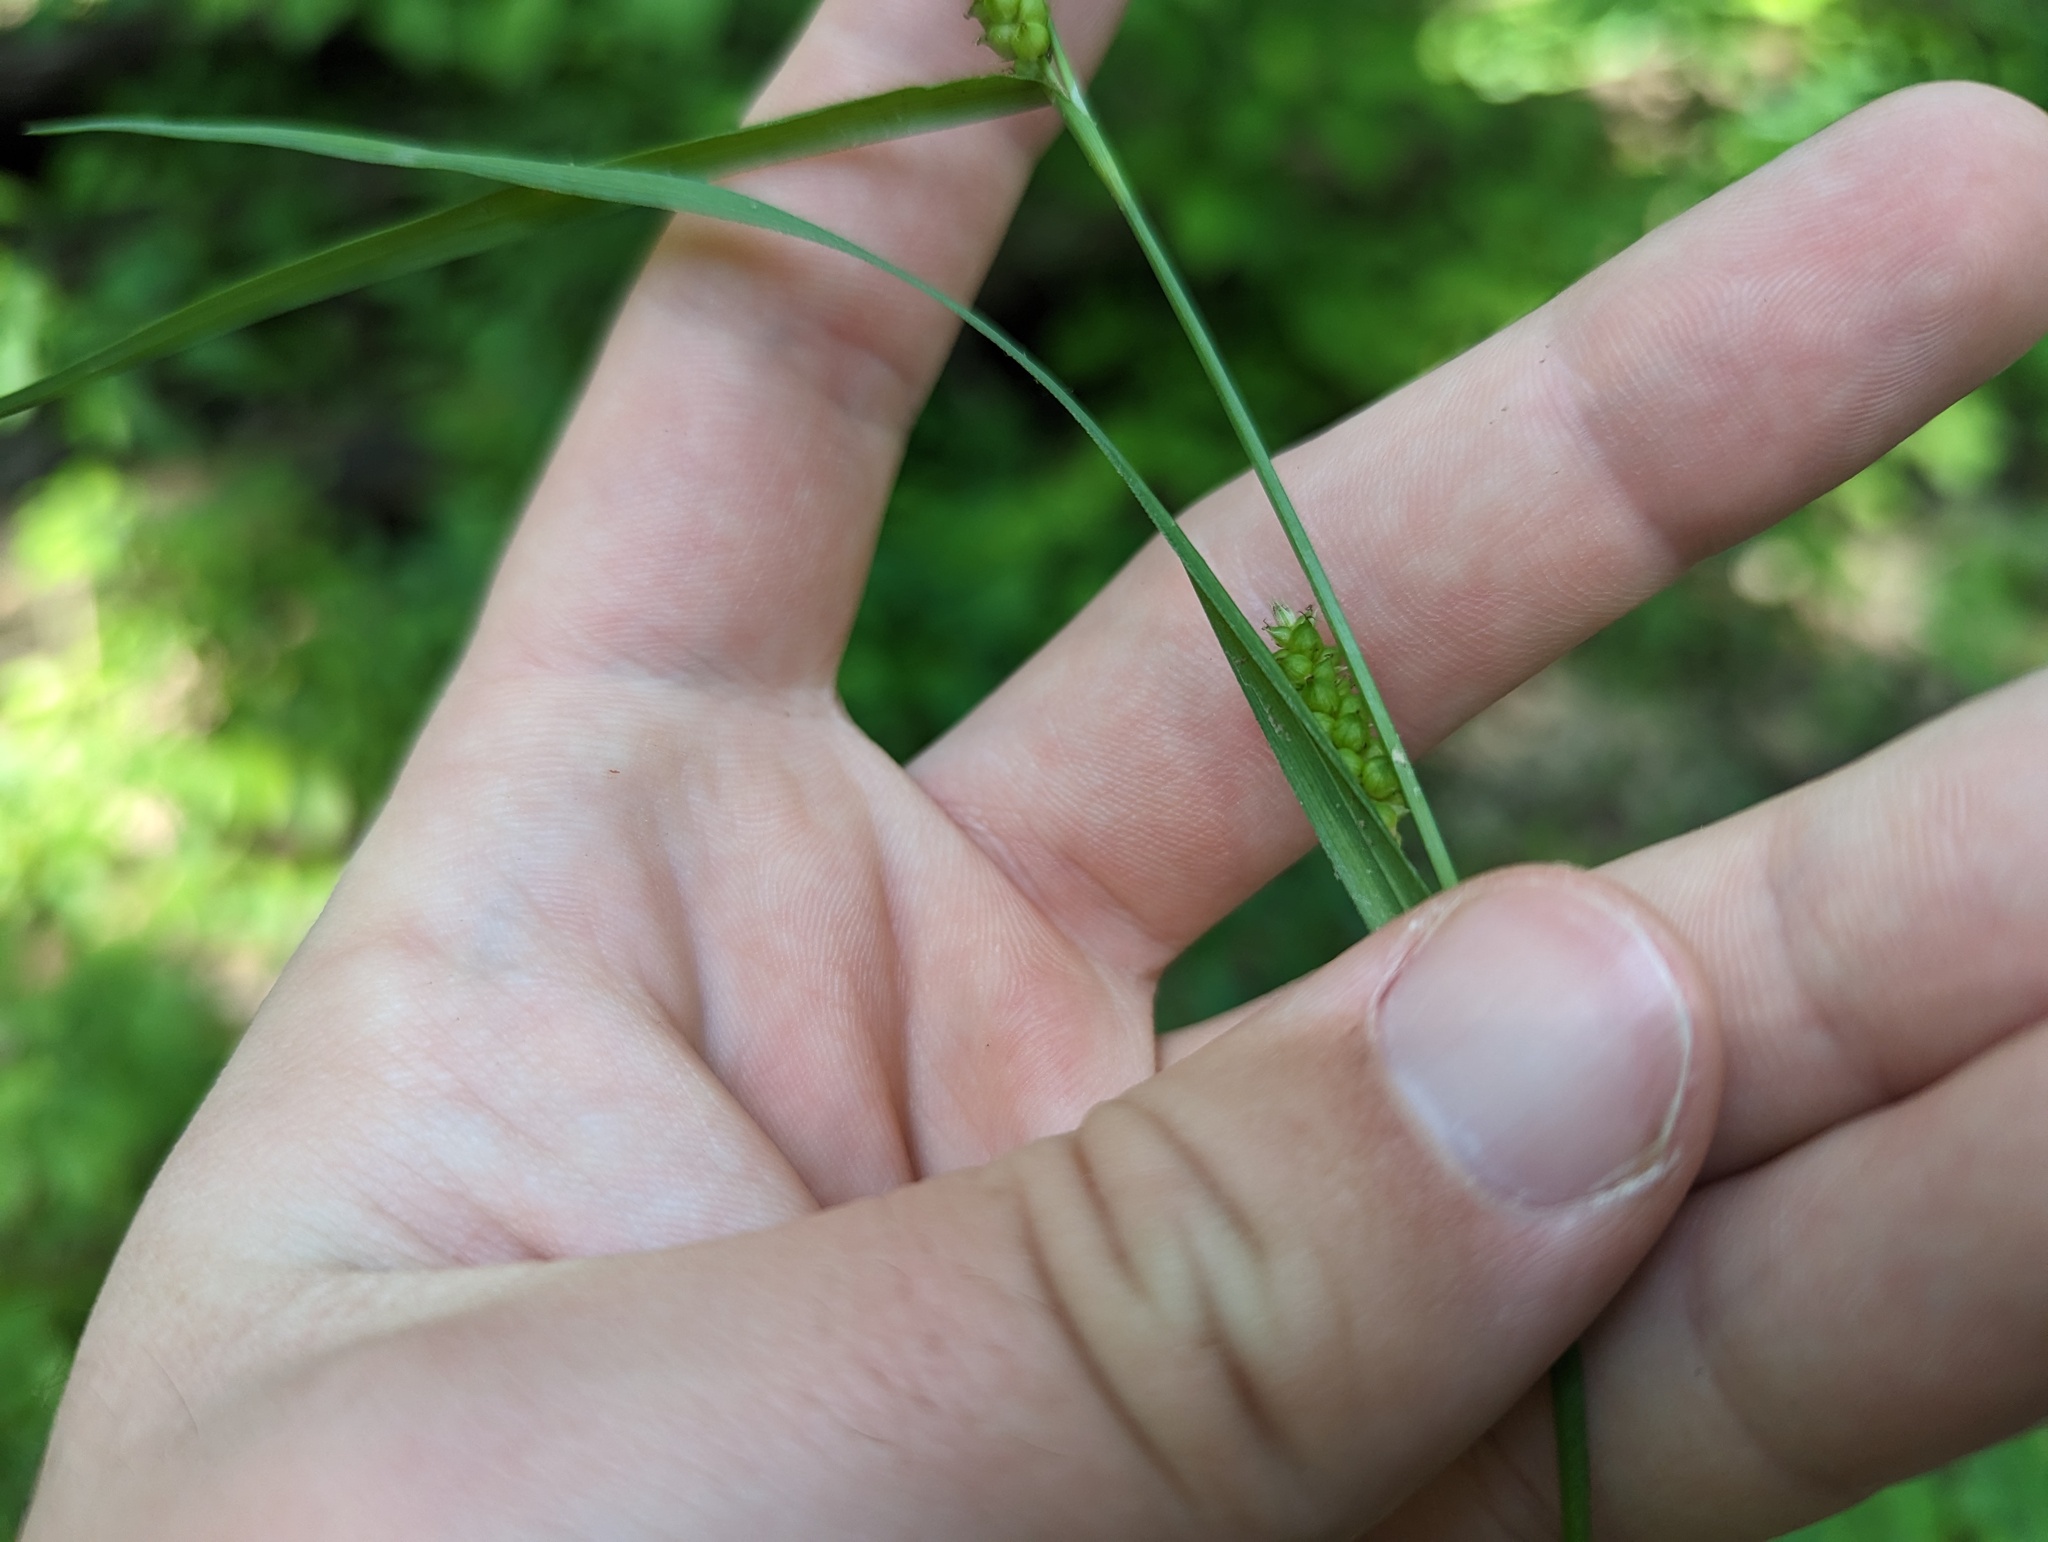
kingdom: Plantae
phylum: Tracheophyta
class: Liliopsida
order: Poales
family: Cyperaceae
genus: Carex
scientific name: Carex granularis
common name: Granular sedge
